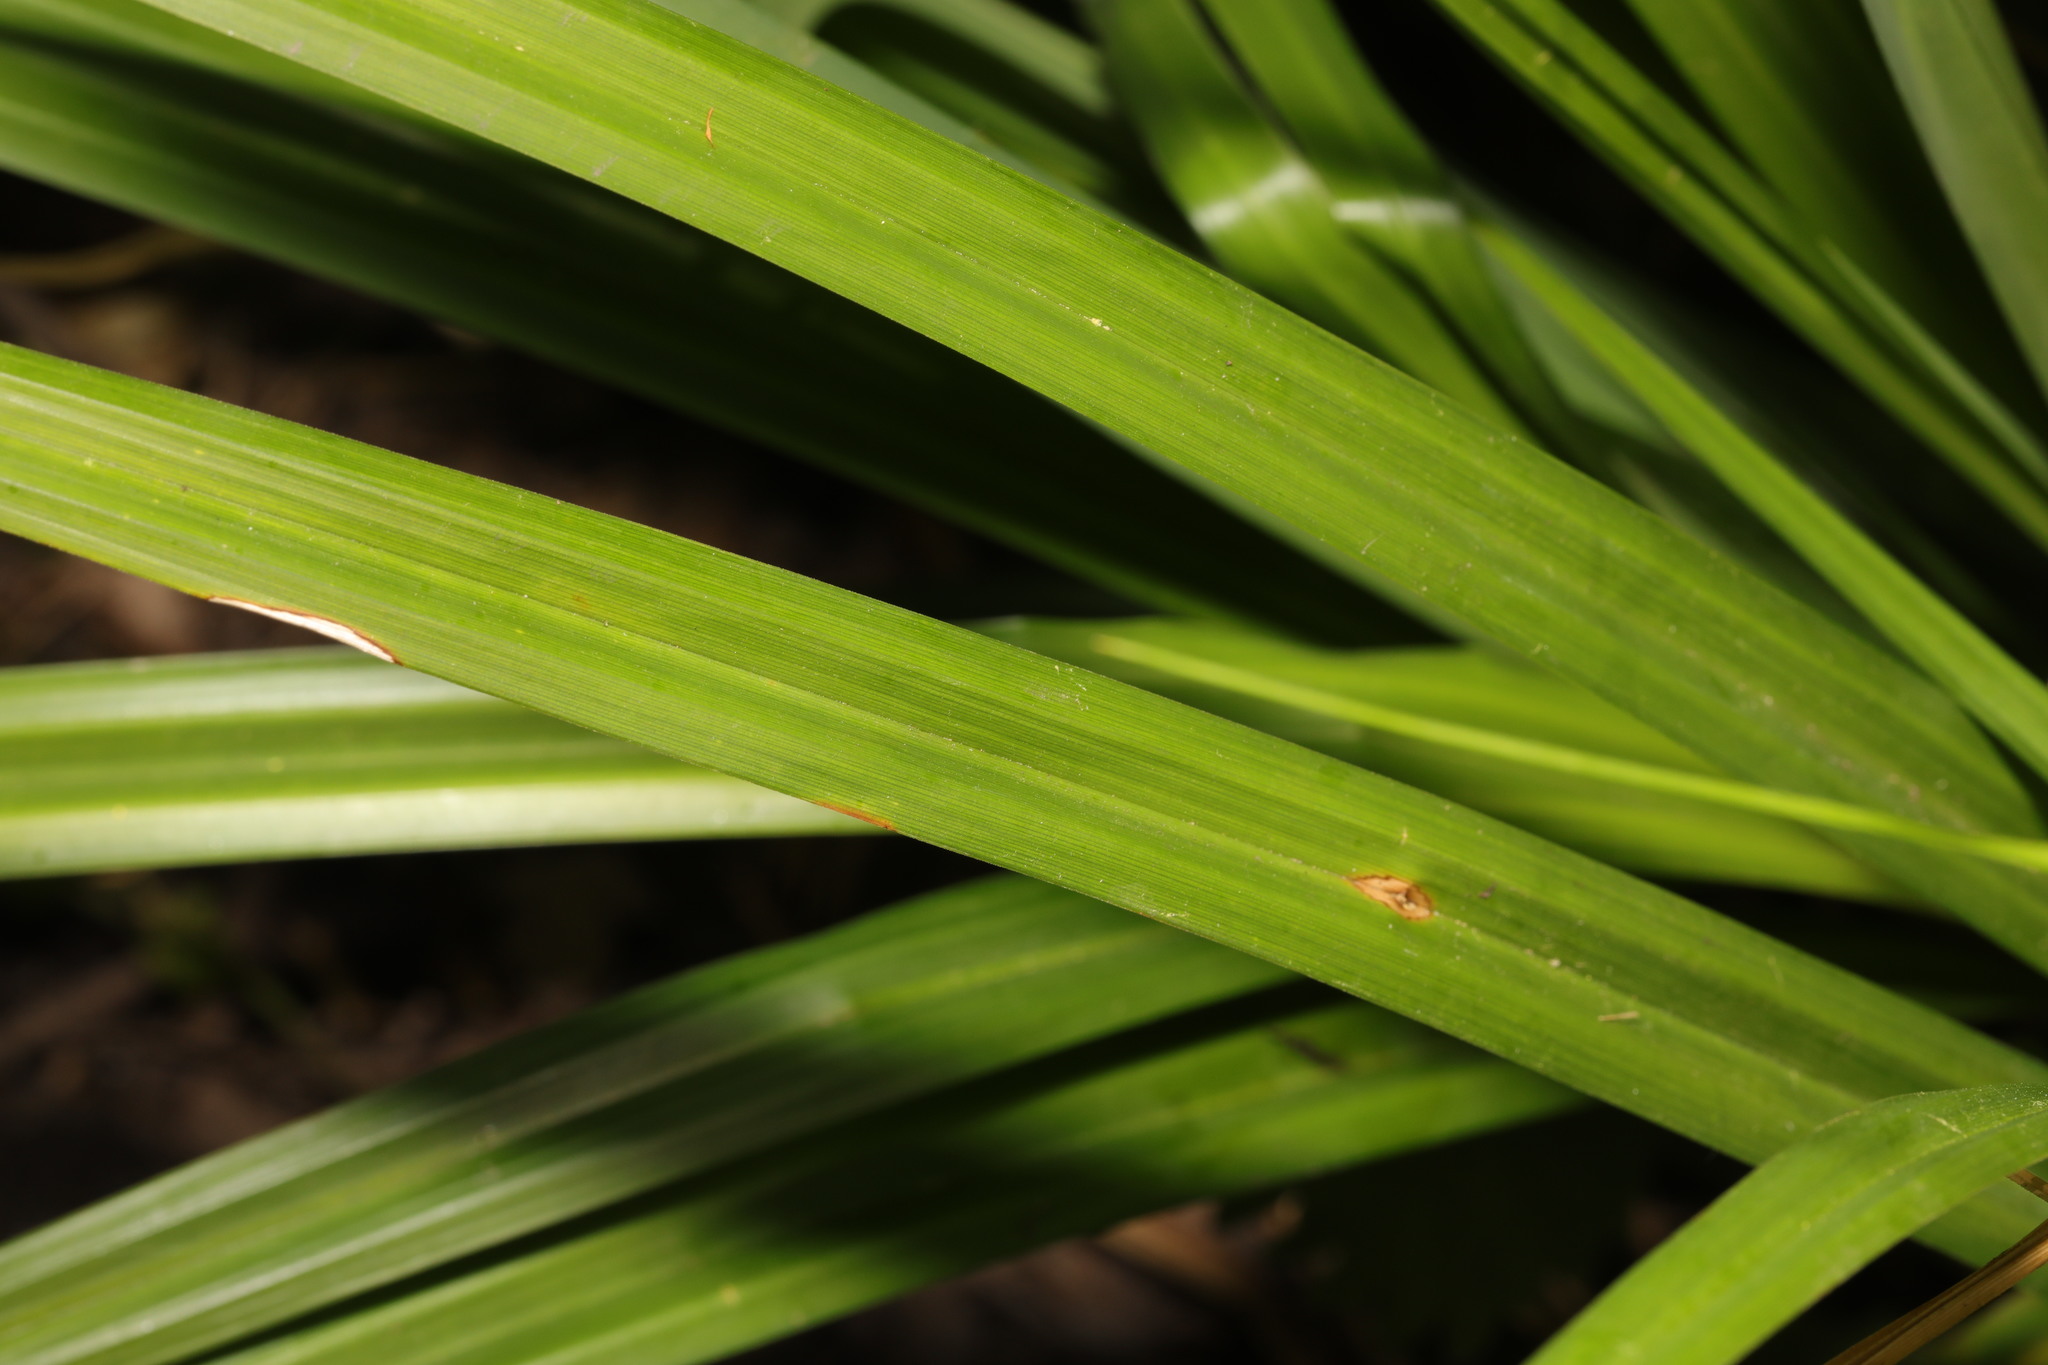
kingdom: Plantae
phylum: Tracheophyta
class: Liliopsida
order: Poales
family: Cyperaceae
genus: Carex
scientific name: Carex pendula
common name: Pendulous sedge
